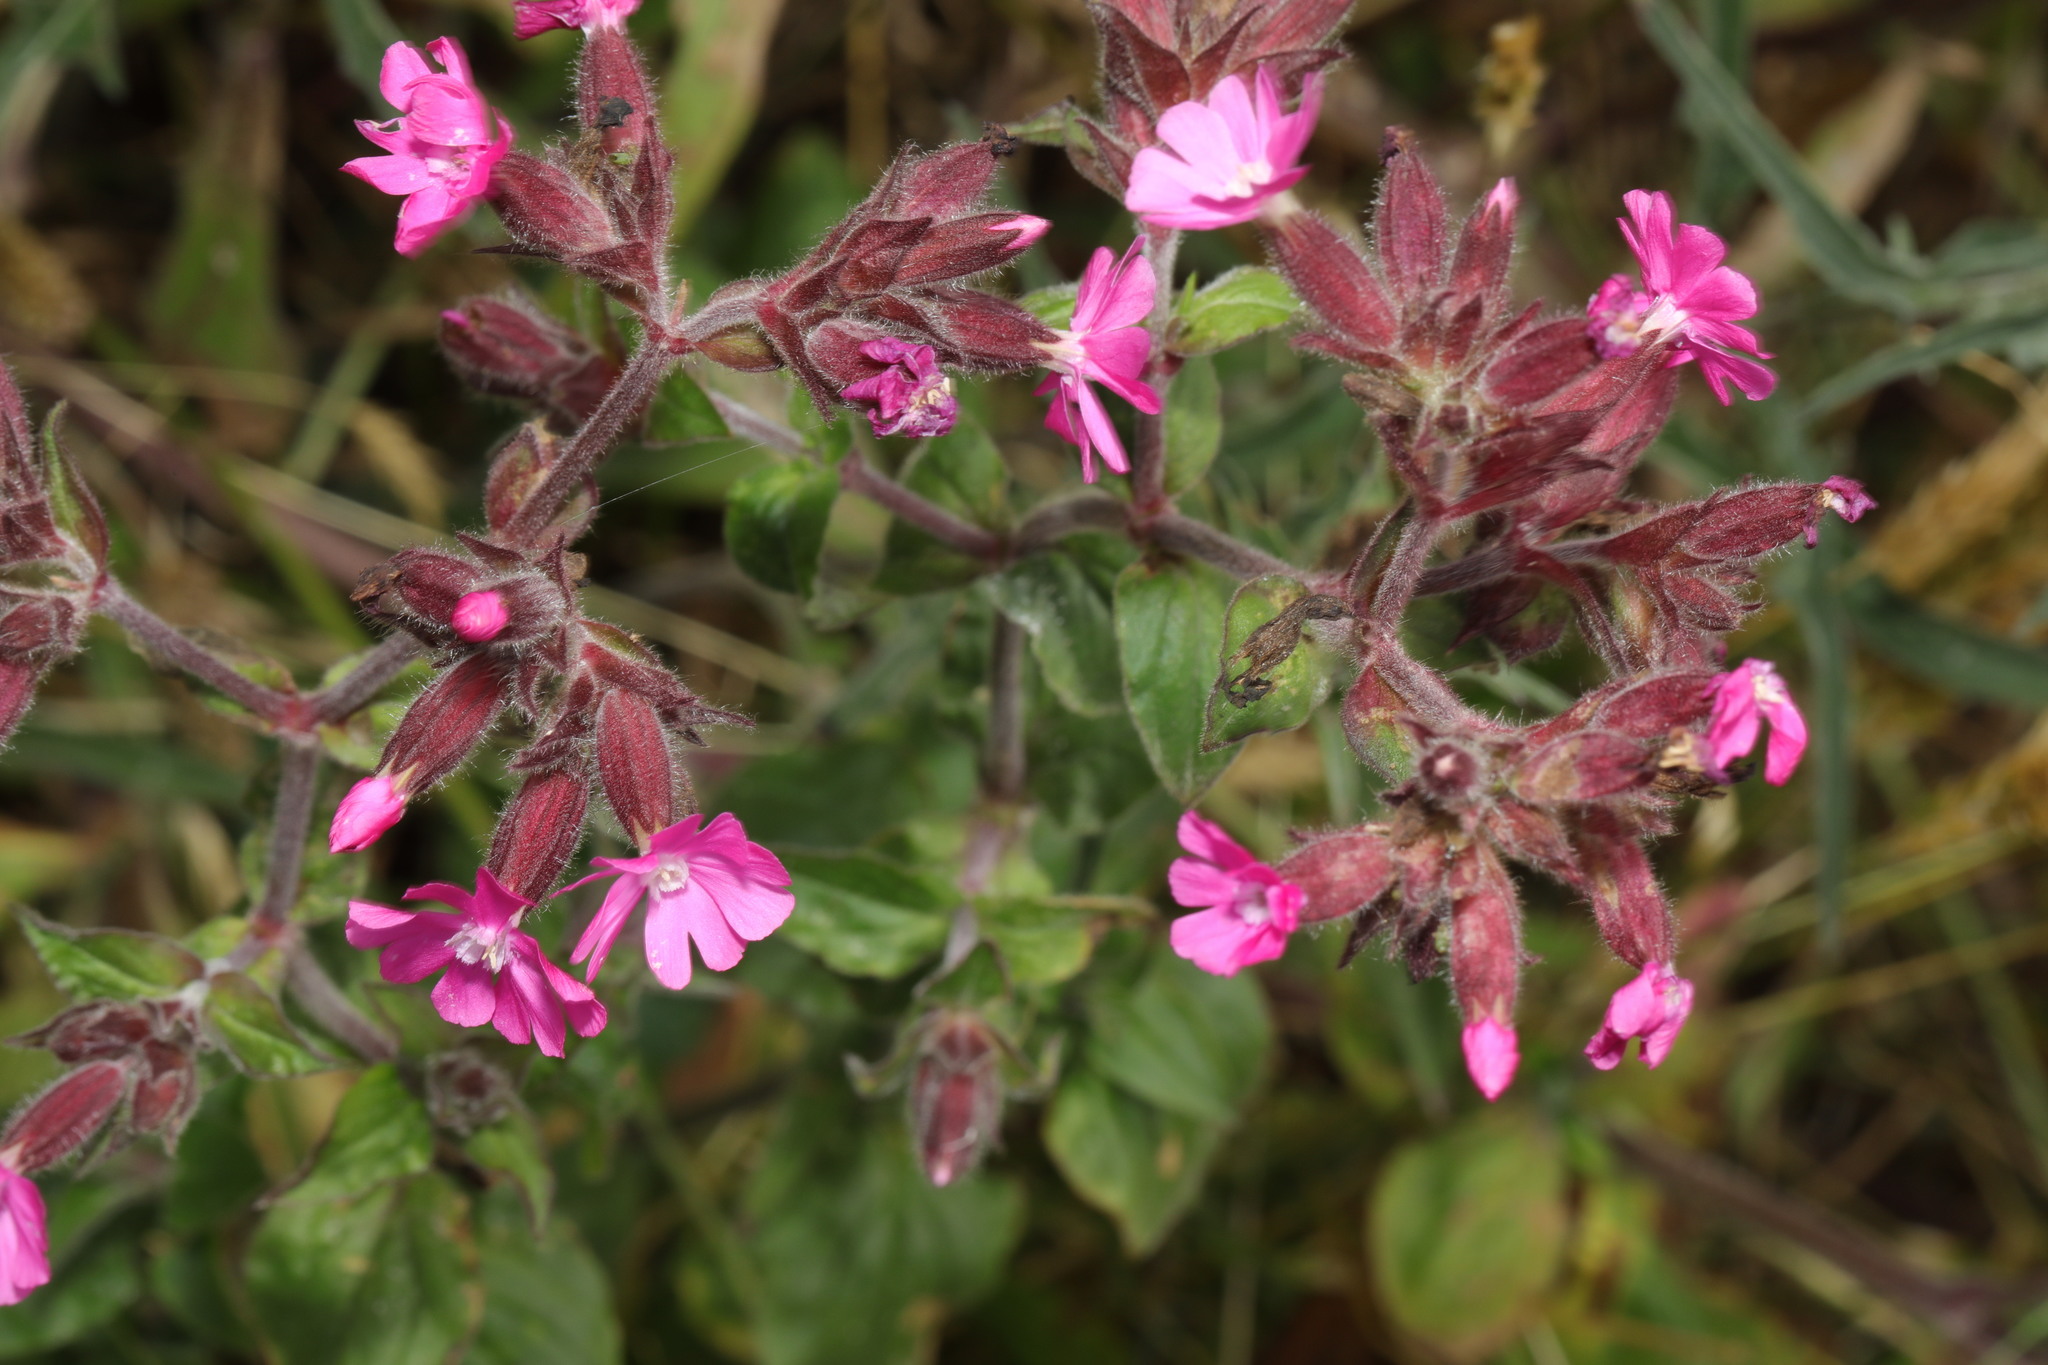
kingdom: Plantae
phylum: Tracheophyta
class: Magnoliopsida
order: Caryophyllales
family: Caryophyllaceae
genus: Silene
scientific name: Silene dioica
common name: Red campion
